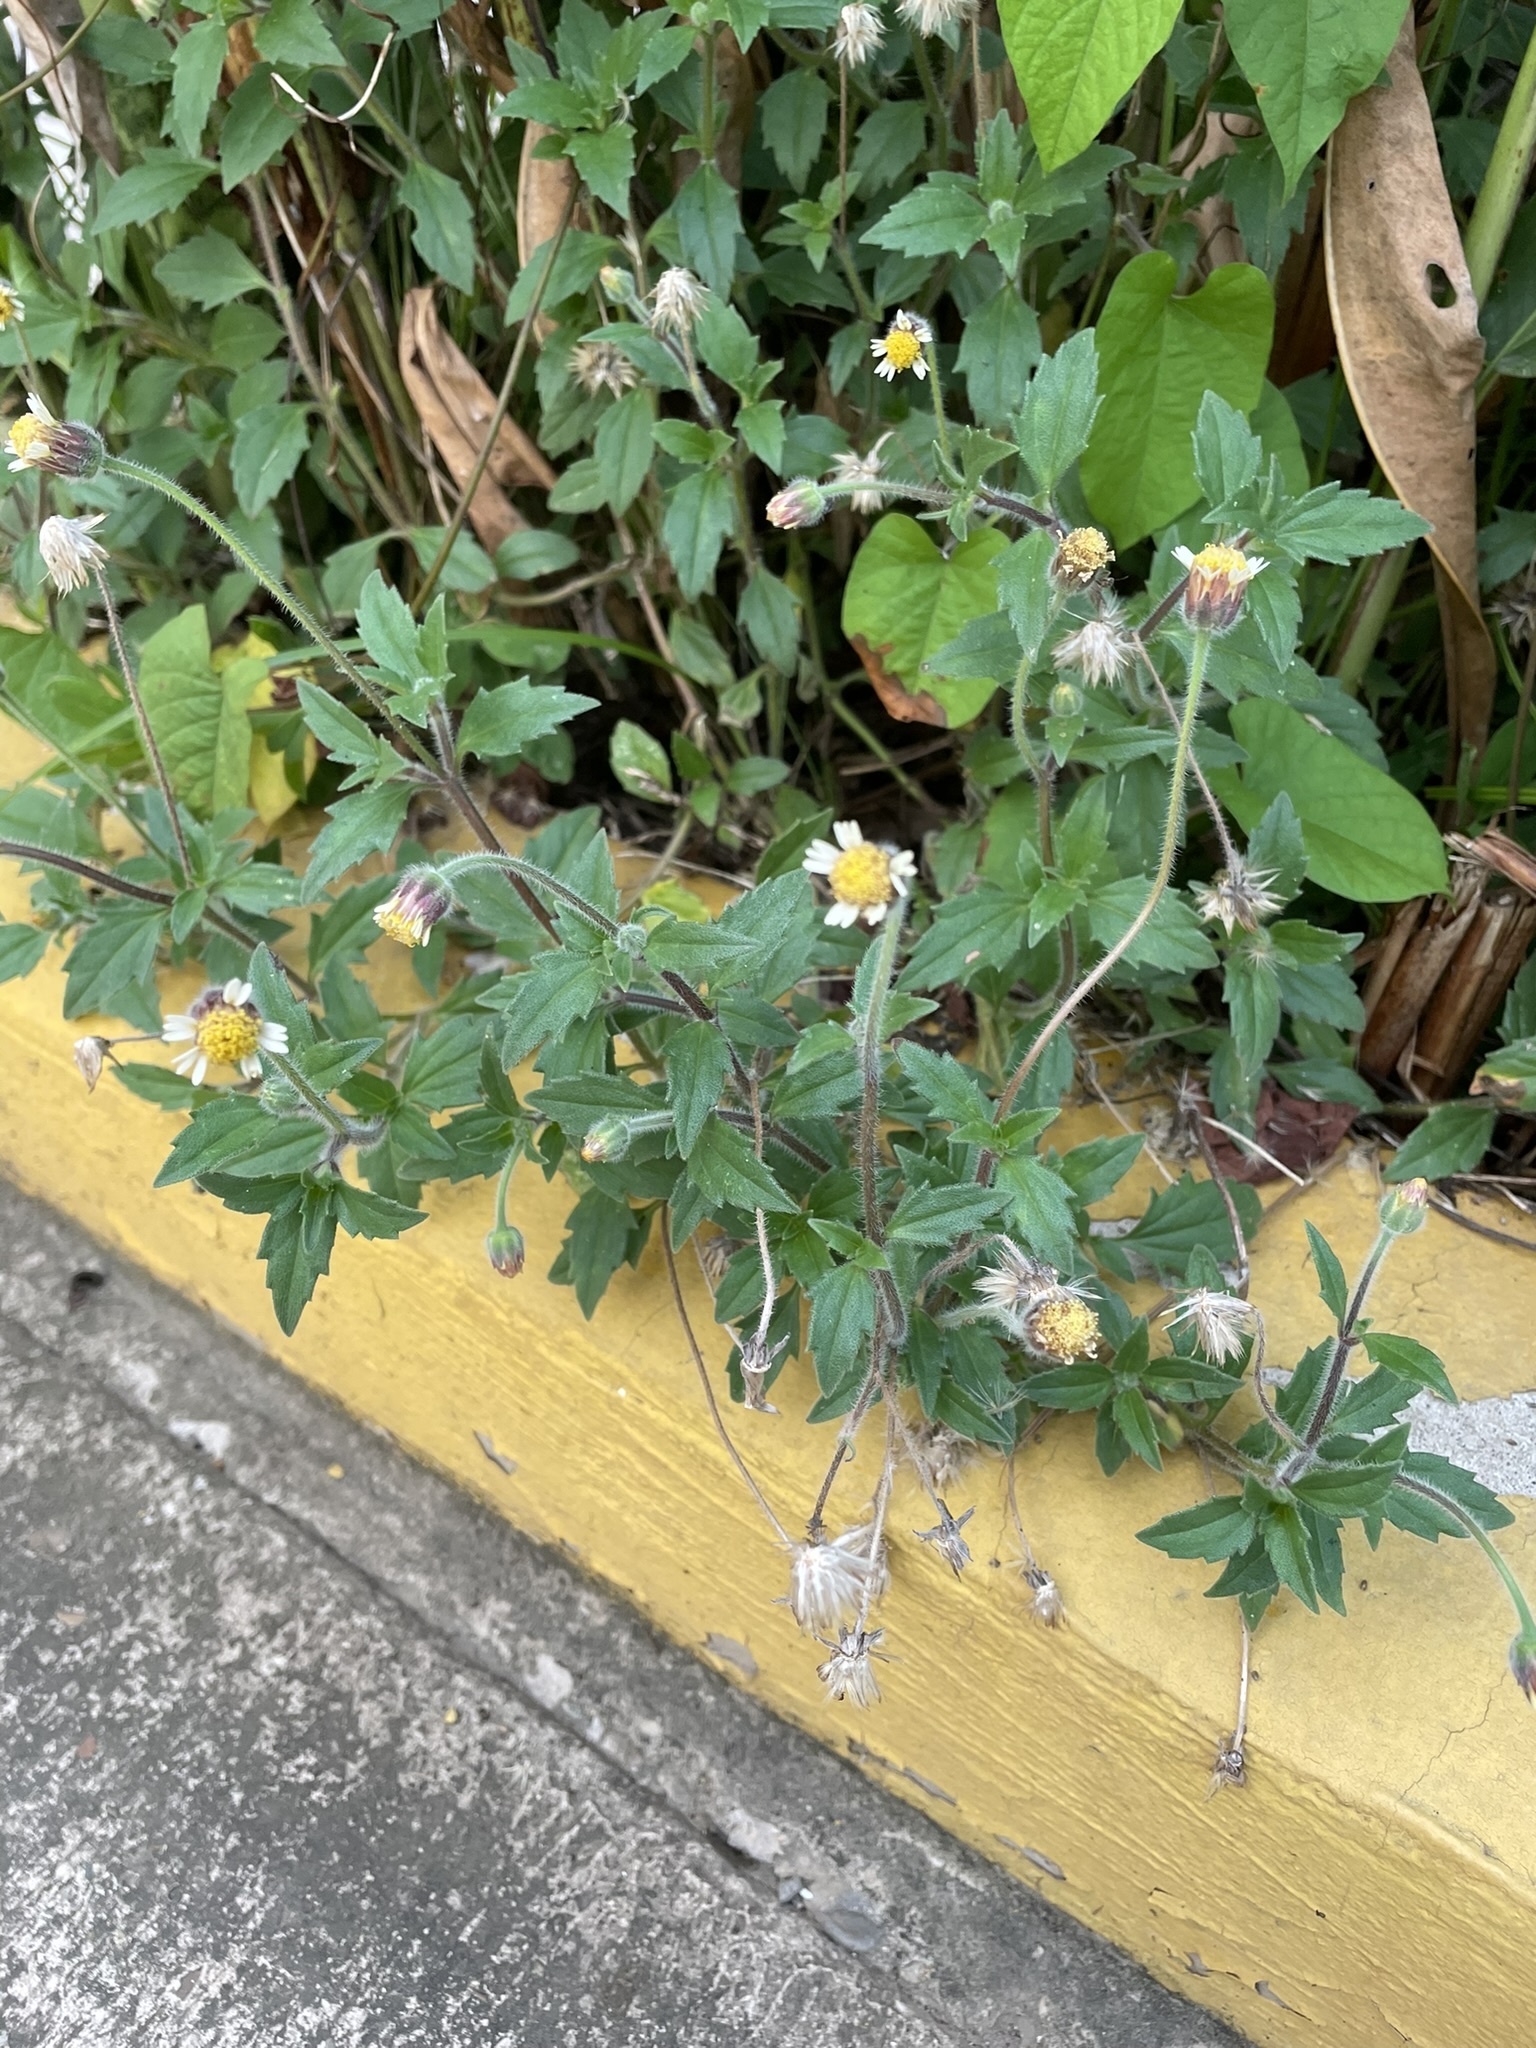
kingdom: Plantae
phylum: Tracheophyta
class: Magnoliopsida
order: Asterales
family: Asteraceae
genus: Tridax
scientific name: Tridax procumbens
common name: Coatbuttons
